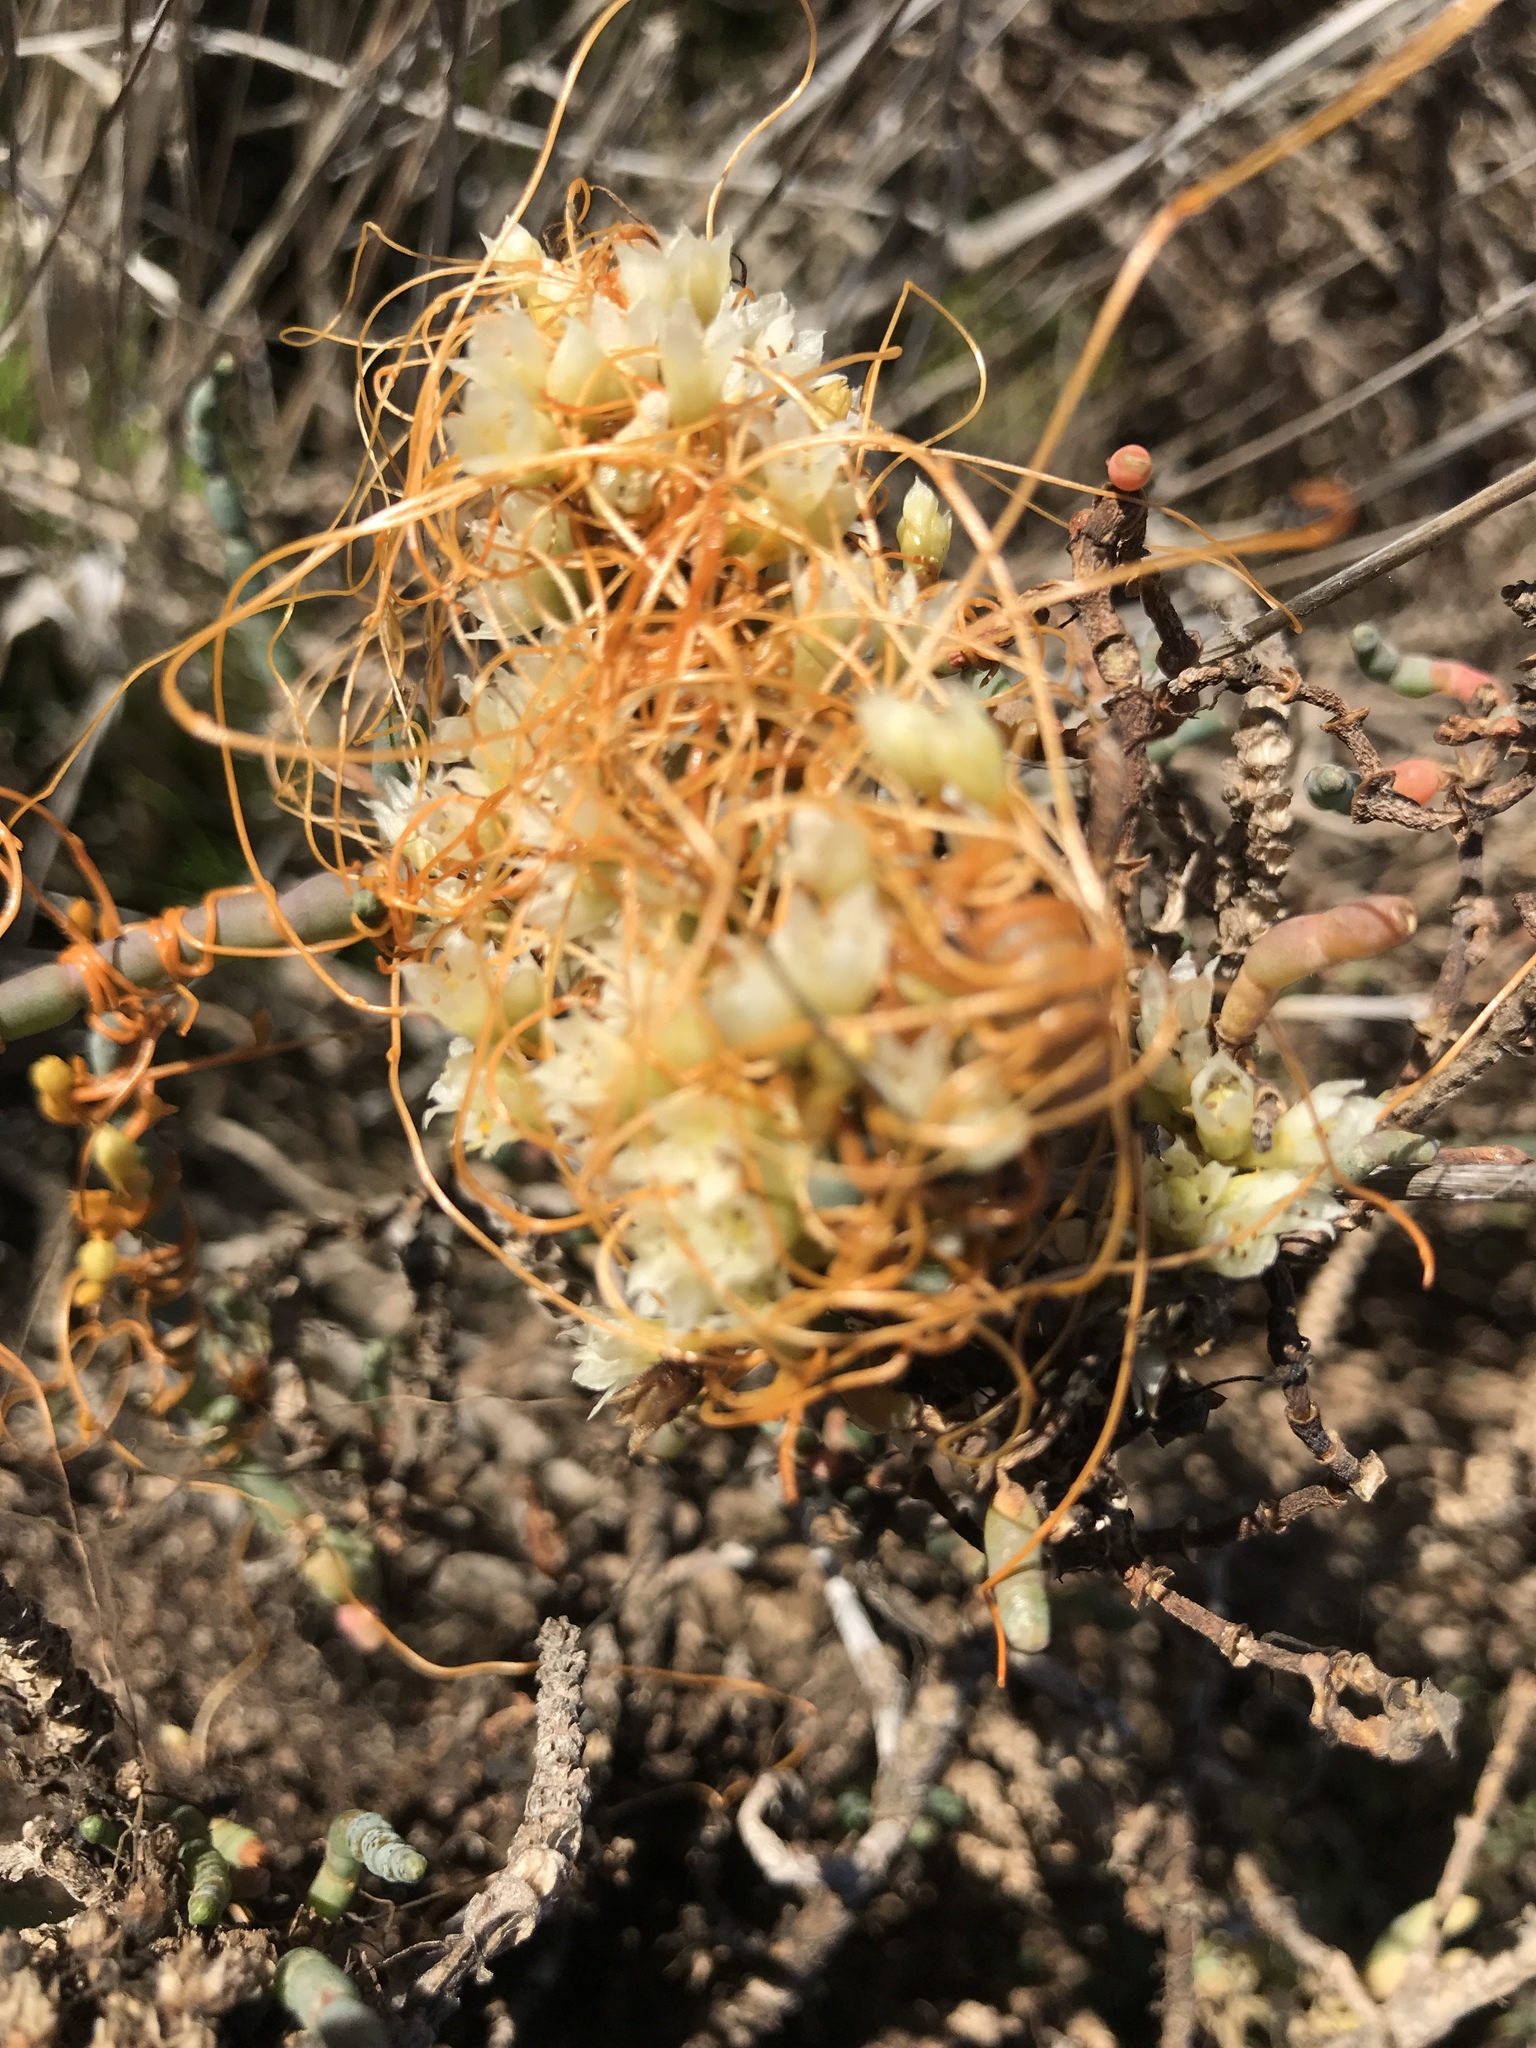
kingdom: Plantae
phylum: Tracheophyta
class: Magnoliopsida
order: Solanales
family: Convolvulaceae
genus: Cuscuta
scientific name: Cuscuta pacifica
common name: Large saltmarsh dodder
